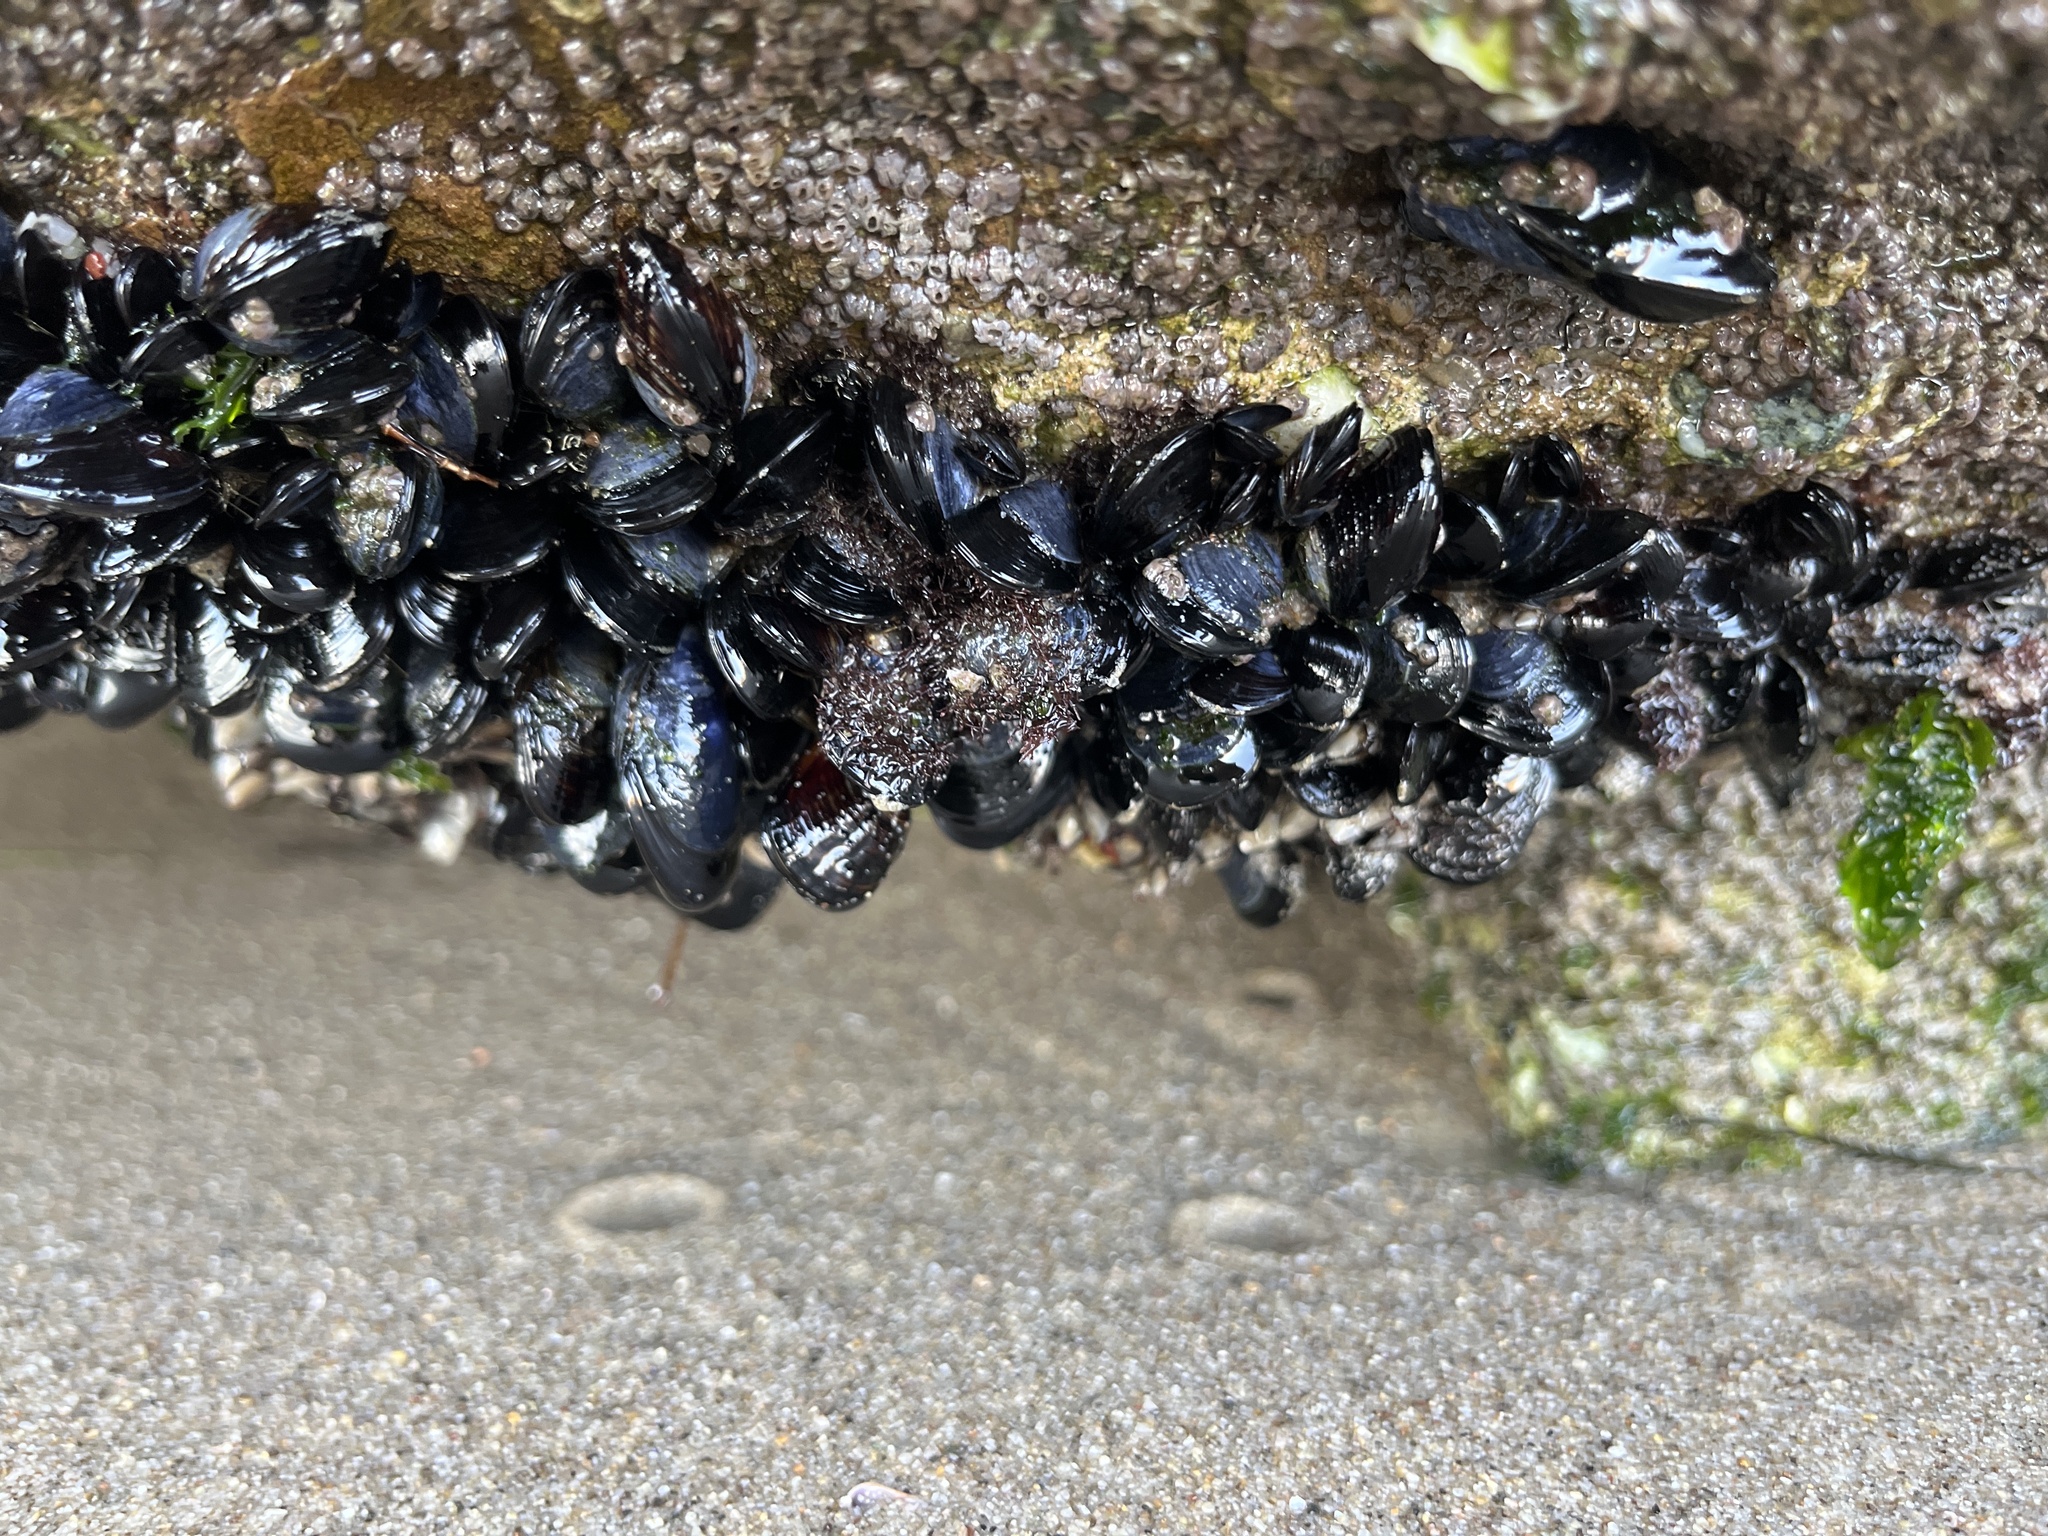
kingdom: Animalia
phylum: Mollusca
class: Bivalvia
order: Mytilida
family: Mytilidae
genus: Mytilus
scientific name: Mytilus californianus
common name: California mussel
